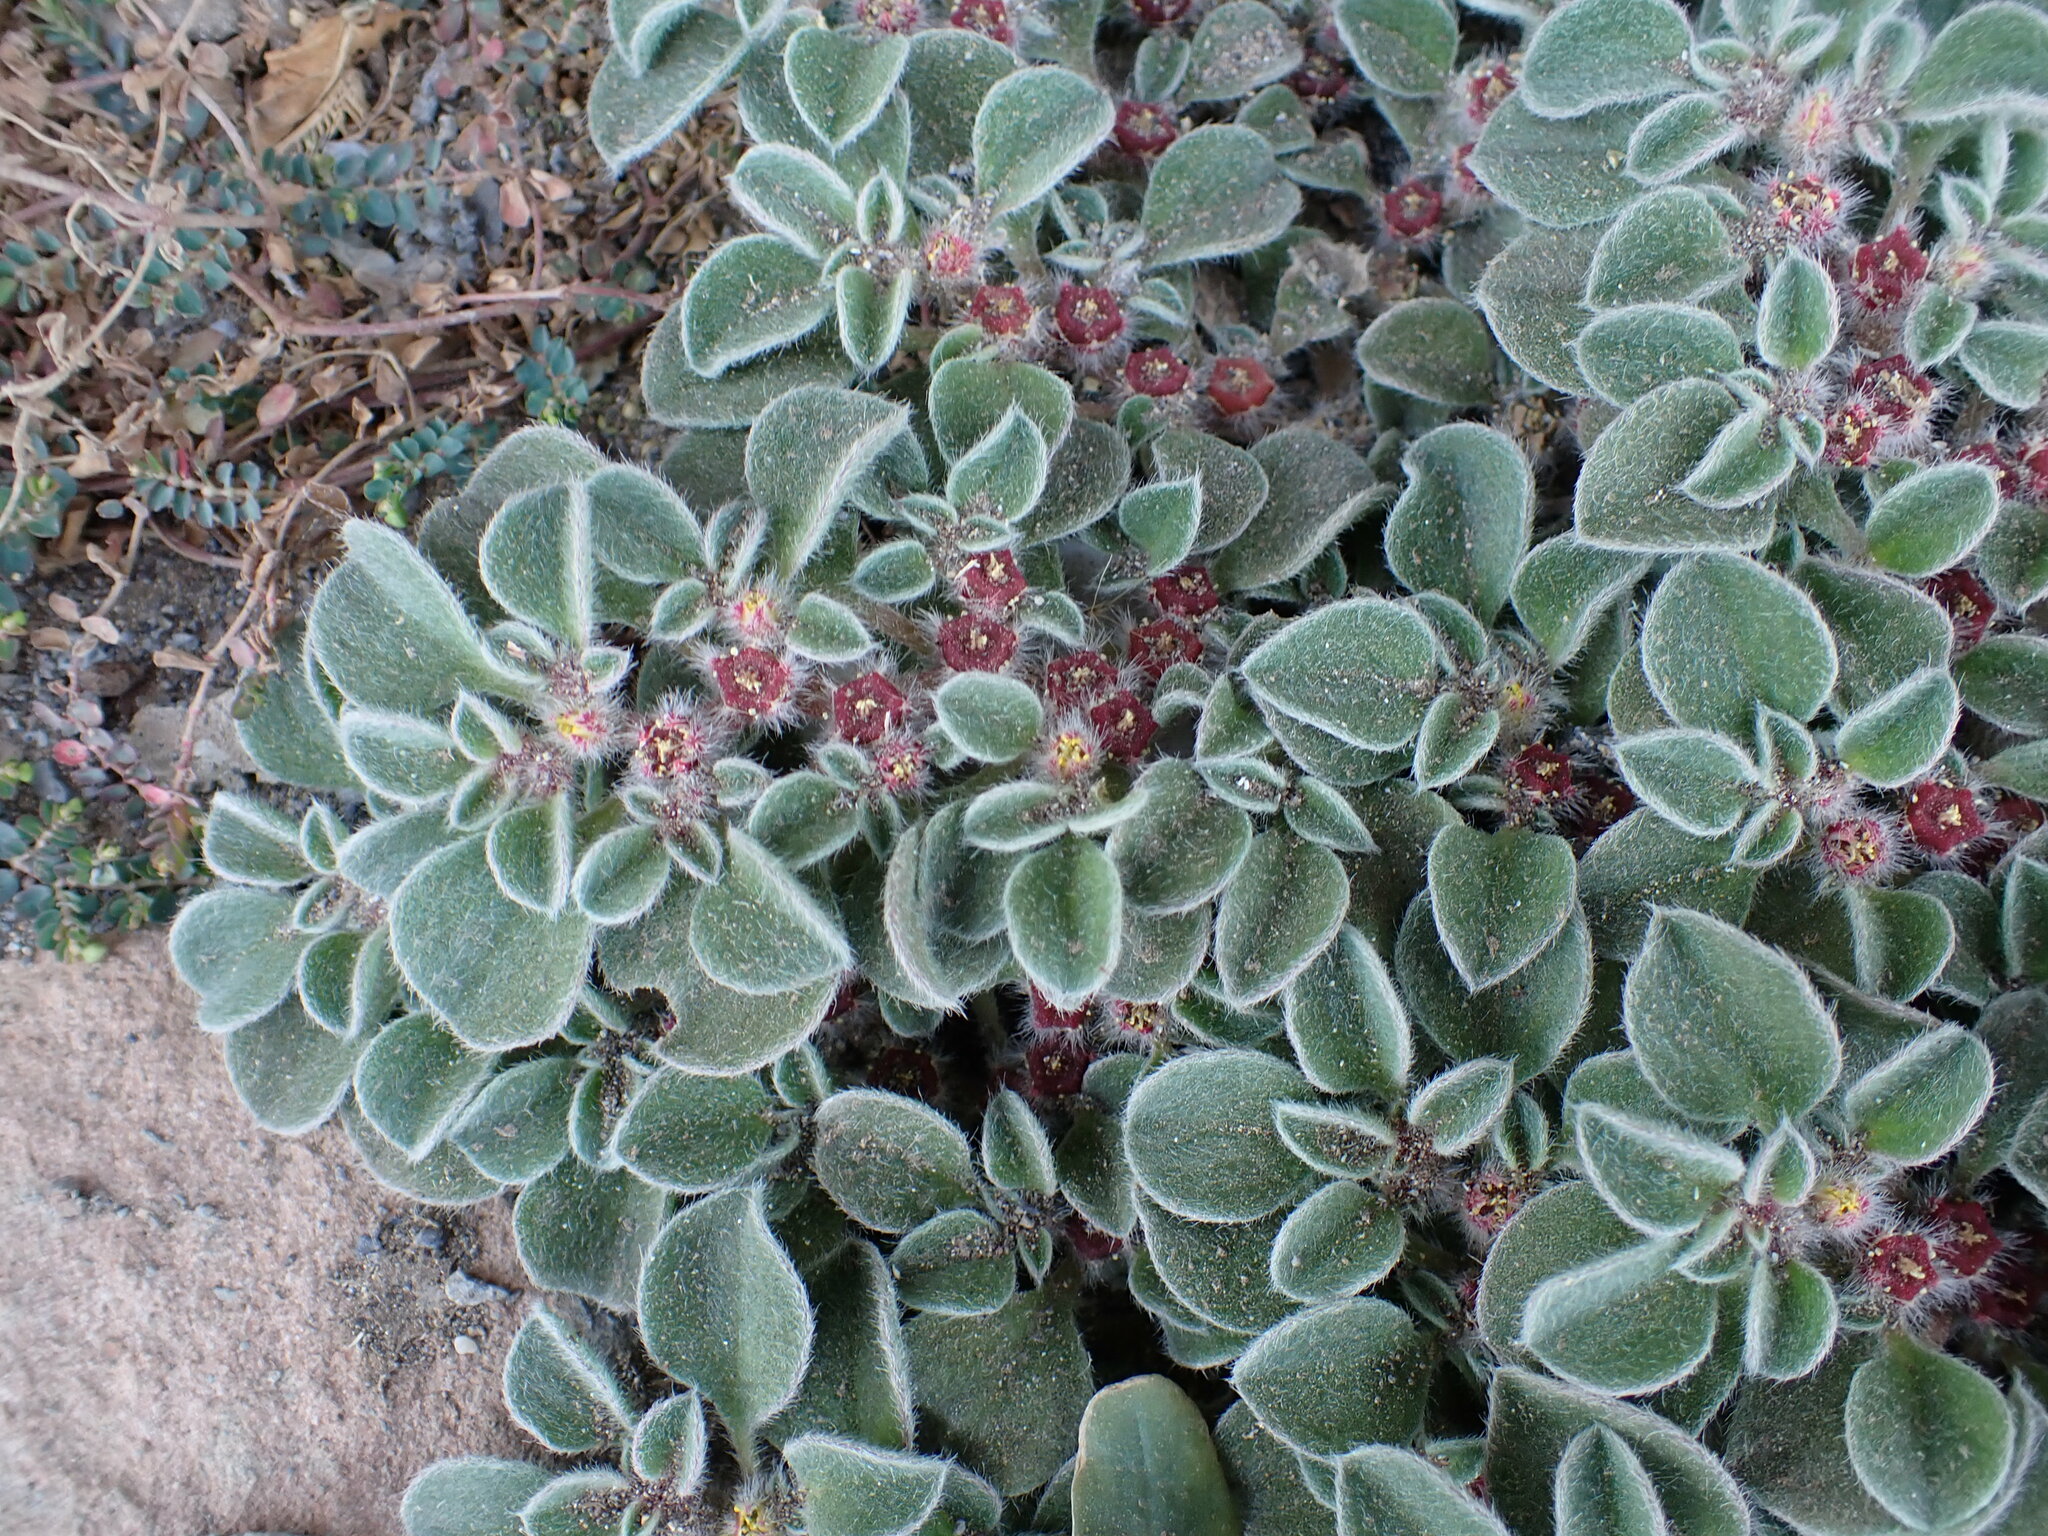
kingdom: Plantae
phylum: Tracheophyta
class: Magnoliopsida
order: Caryophyllales
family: Aizoaceae
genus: Aizoon
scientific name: Aizoon canariense
